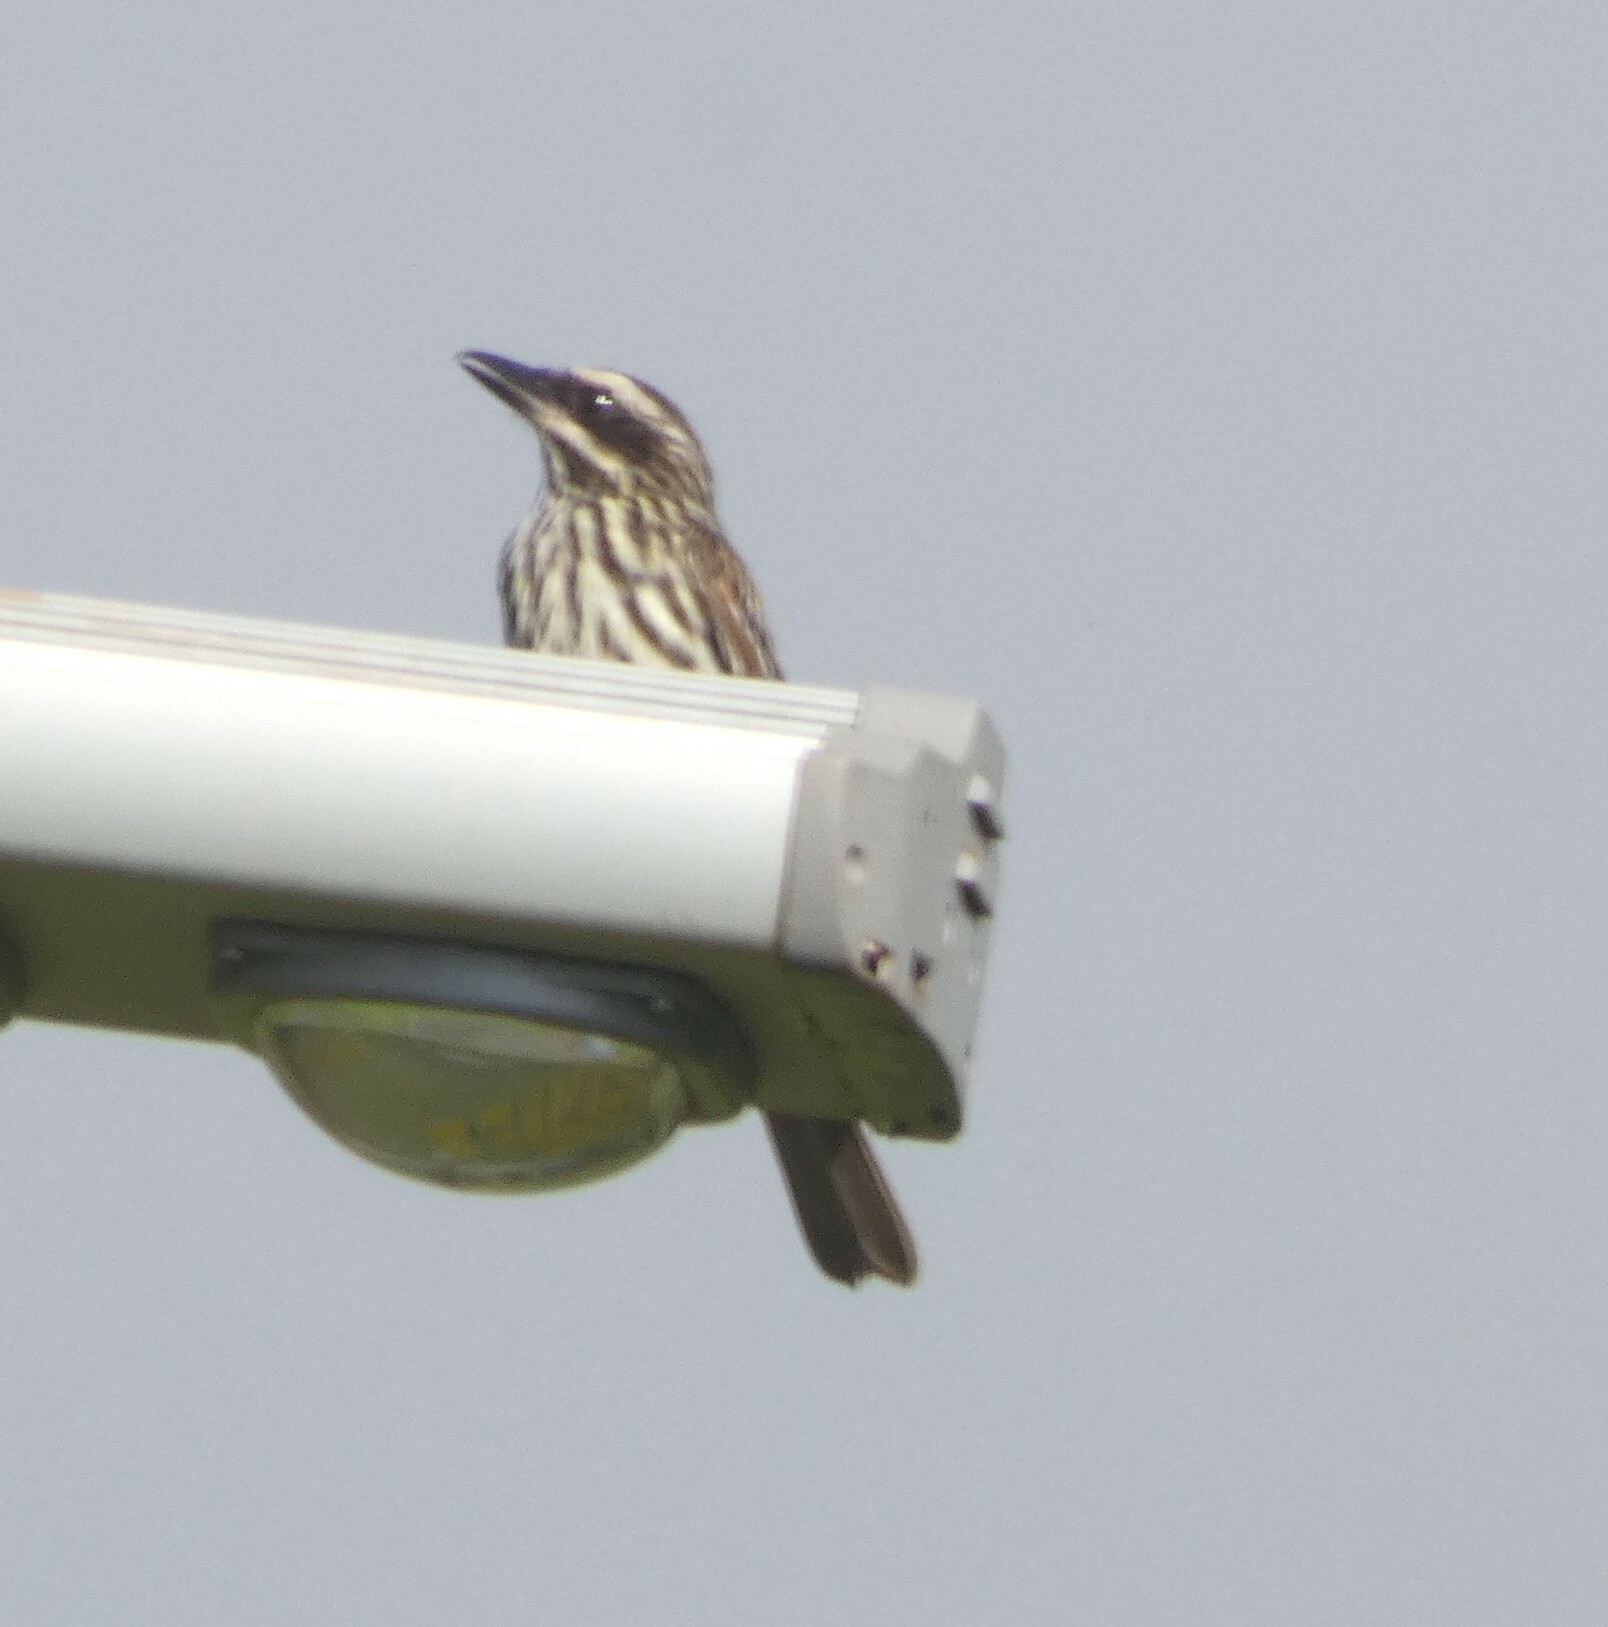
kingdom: Animalia
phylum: Chordata
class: Aves
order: Passeriformes
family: Tyrannidae
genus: Myiodynastes
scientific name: Myiodynastes maculatus
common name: Streaked flycatcher
